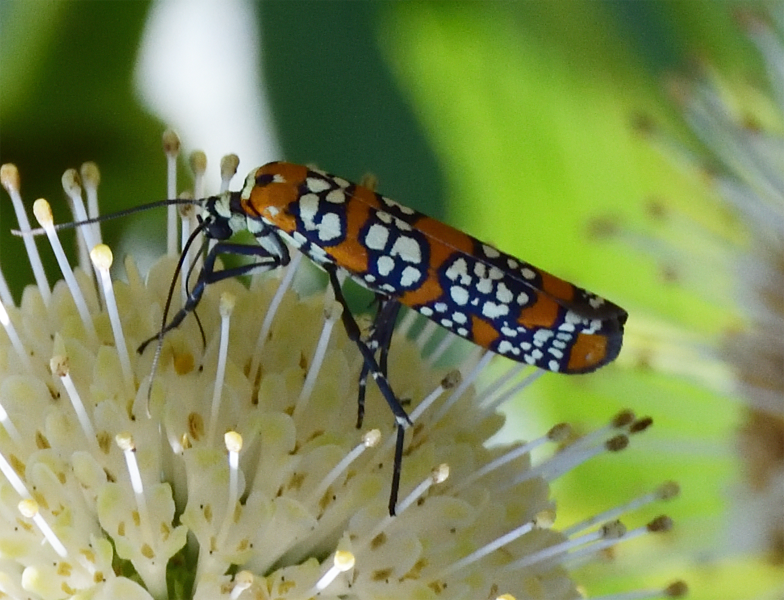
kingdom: Animalia
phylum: Arthropoda
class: Insecta
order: Lepidoptera
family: Attevidae
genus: Atteva
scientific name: Atteva punctella
